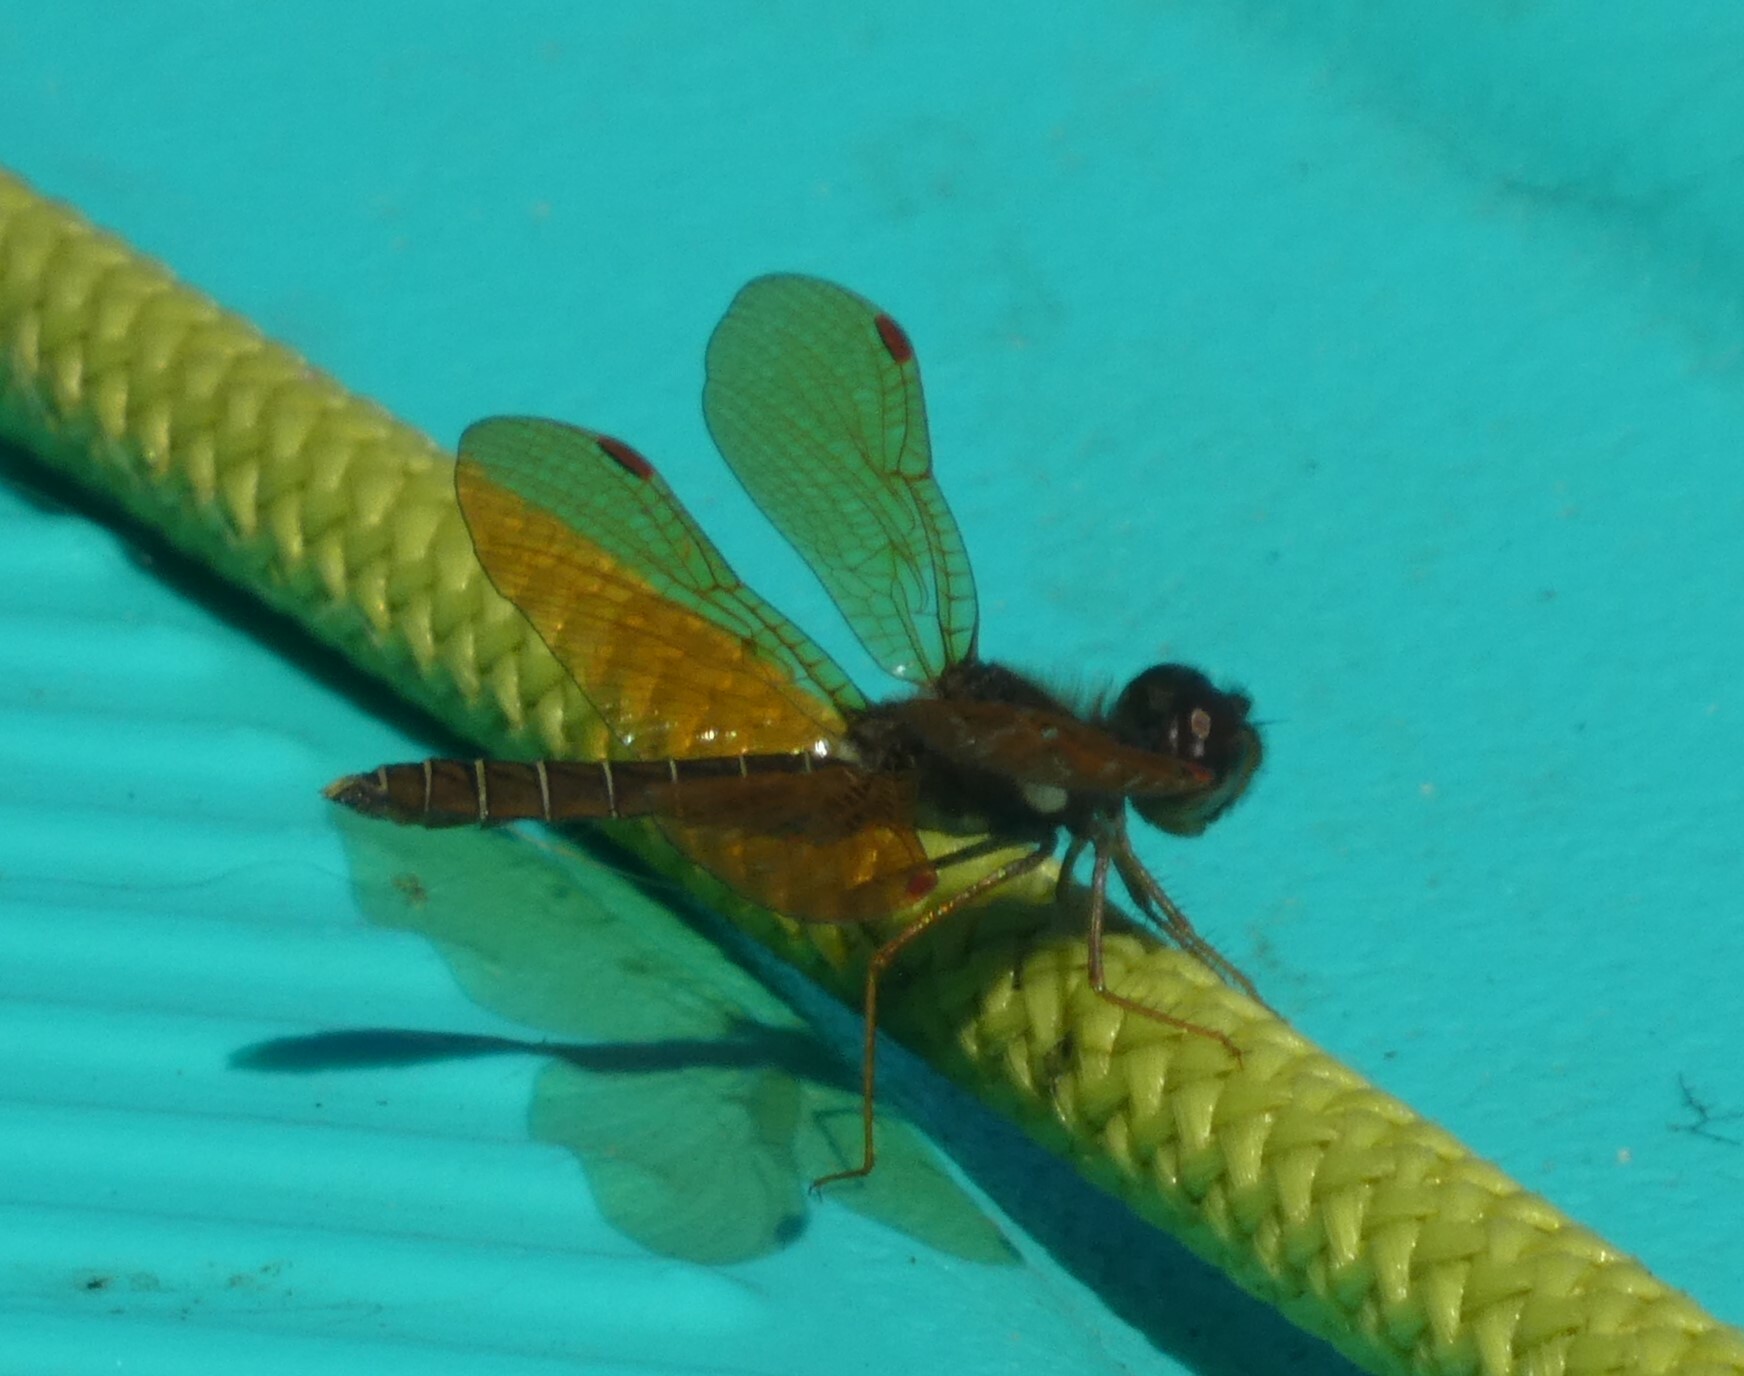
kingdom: Animalia
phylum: Arthropoda
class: Insecta
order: Odonata
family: Libellulidae
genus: Perithemis
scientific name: Perithemis tenera
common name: Eastern amberwing
